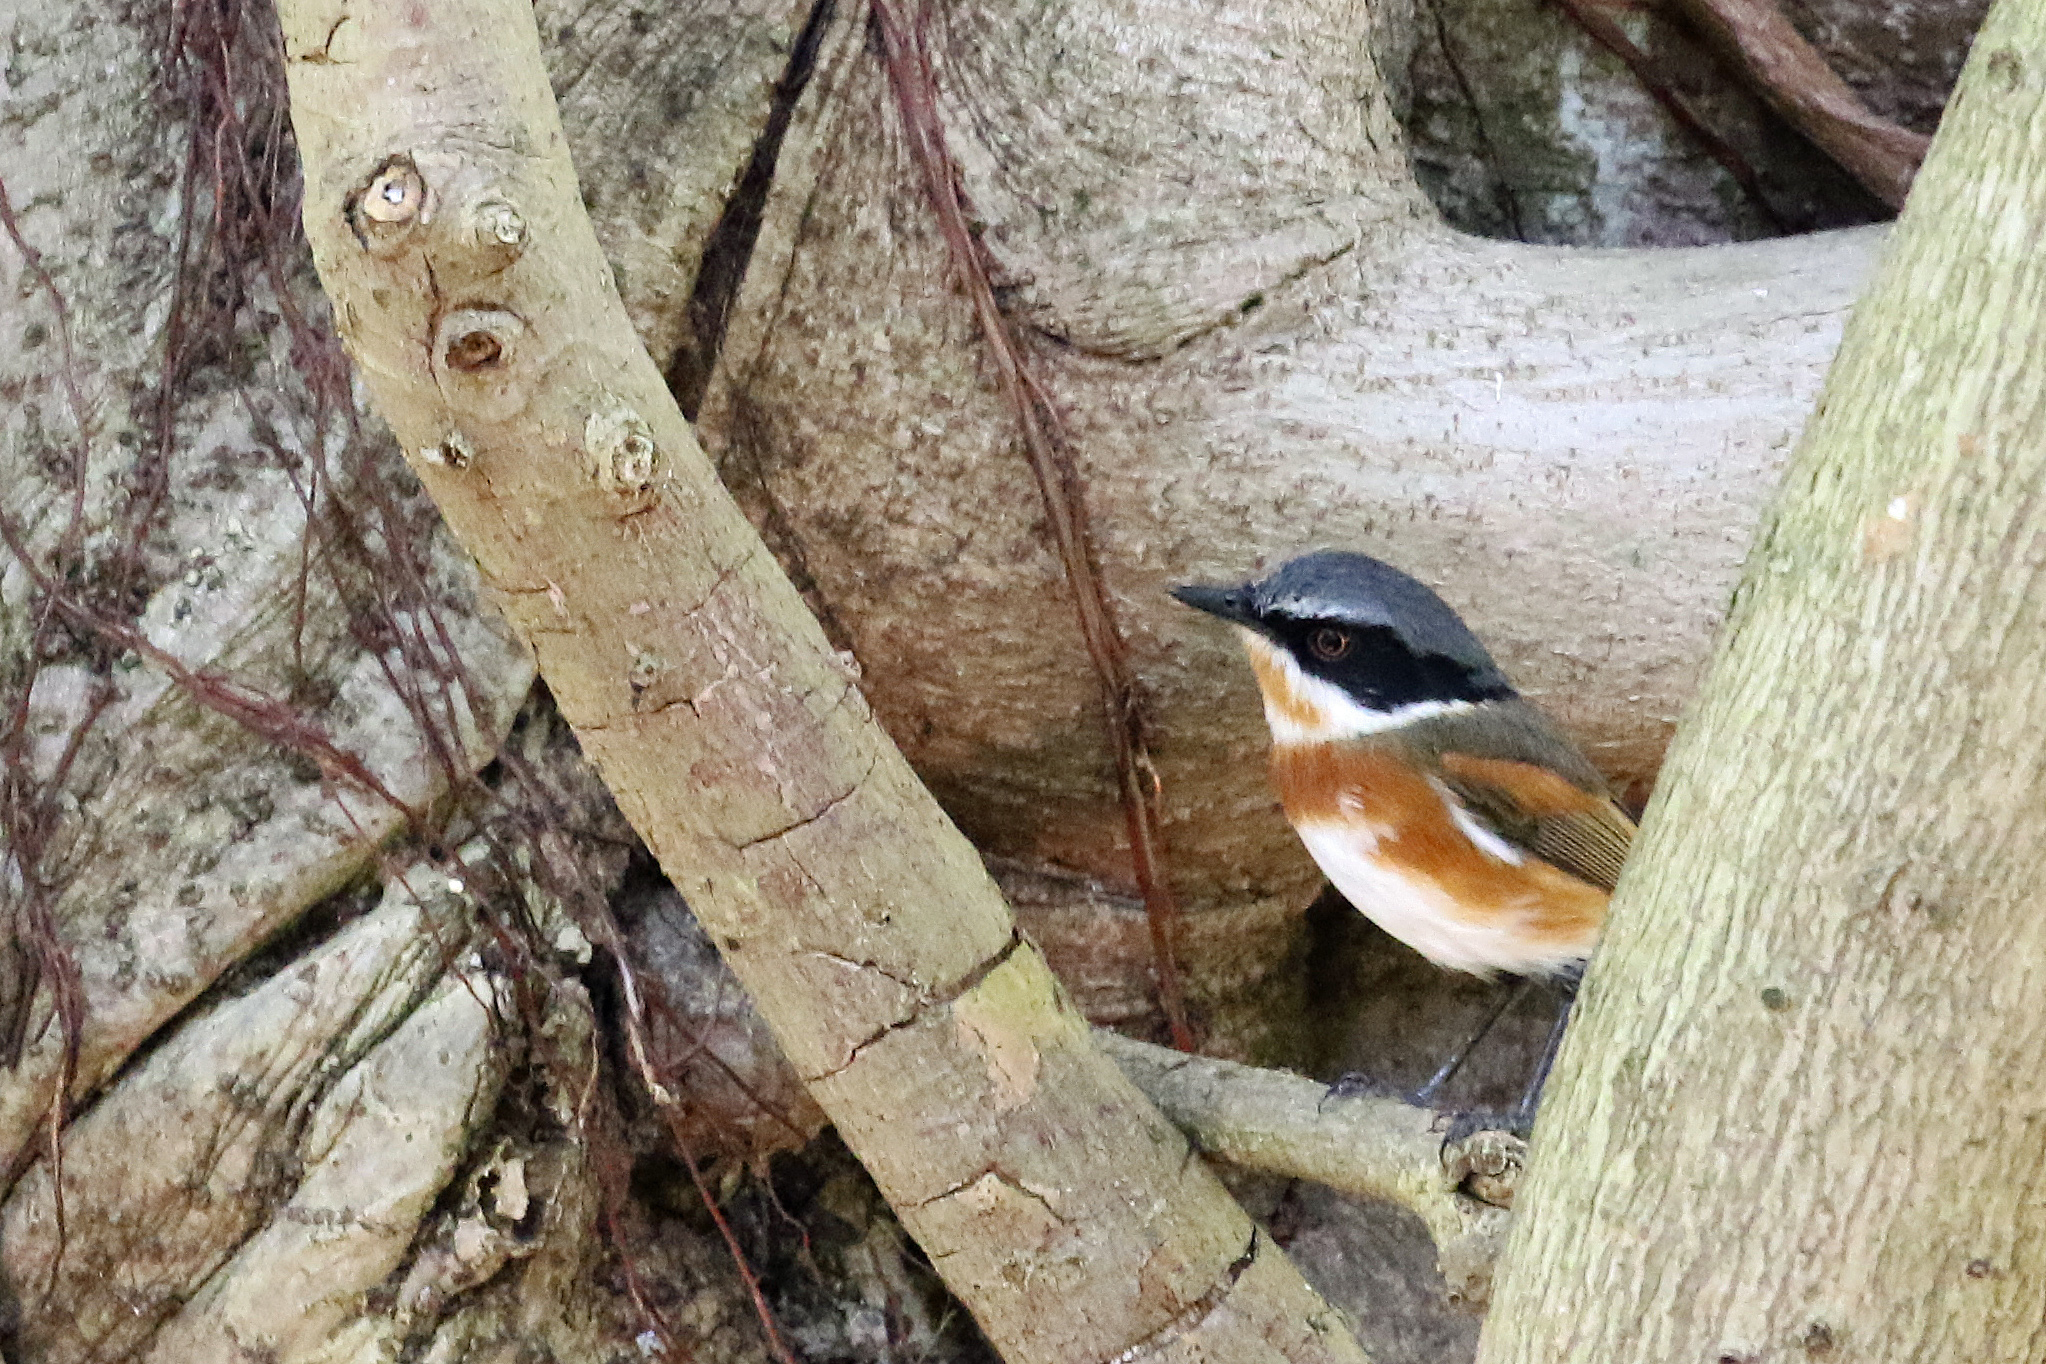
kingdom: Animalia
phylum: Chordata
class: Aves
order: Passeriformes
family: Platysteiridae
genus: Batis
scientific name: Batis capensis
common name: Cape batis
